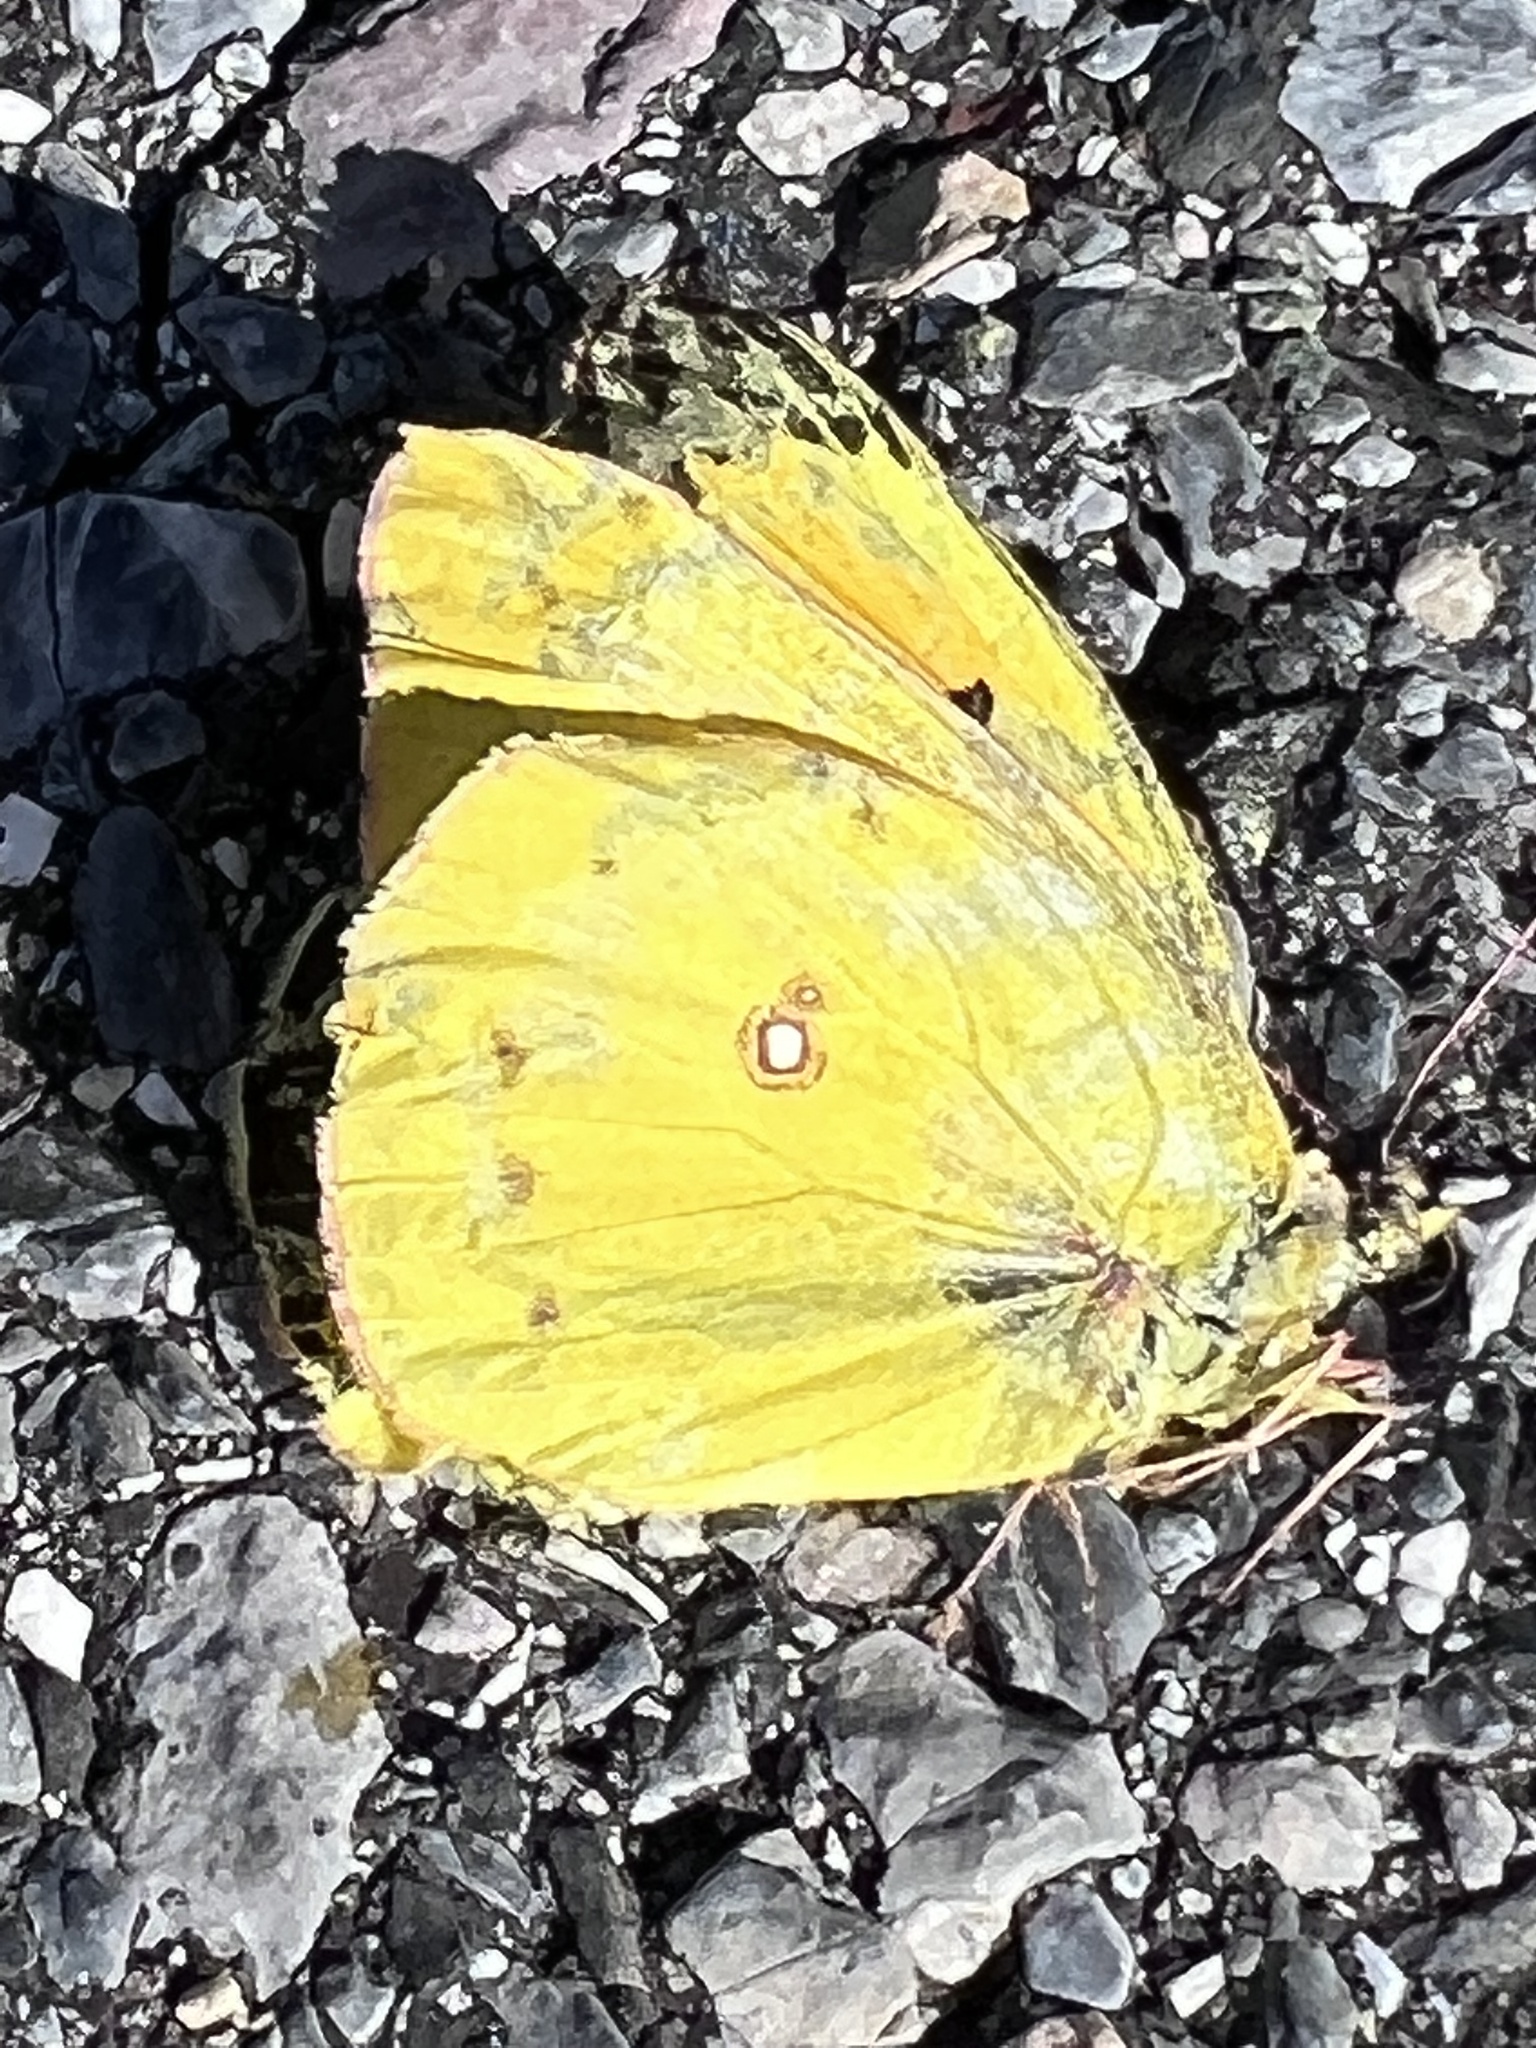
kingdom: Animalia
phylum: Arthropoda
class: Insecta
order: Lepidoptera
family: Pieridae
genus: Colias
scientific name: Colias eurytheme
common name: Alfalfa butterfly
